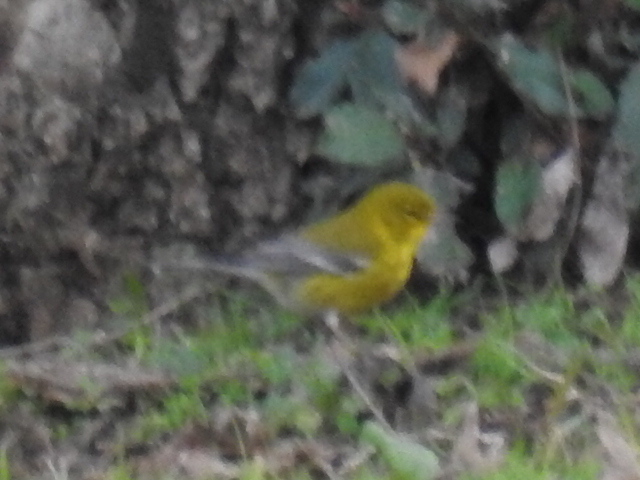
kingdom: Animalia
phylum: Chordata
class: Aves
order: Passeriformes
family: Parulidae
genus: Setophaga
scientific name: Setophaga pinus
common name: Pine warbler
